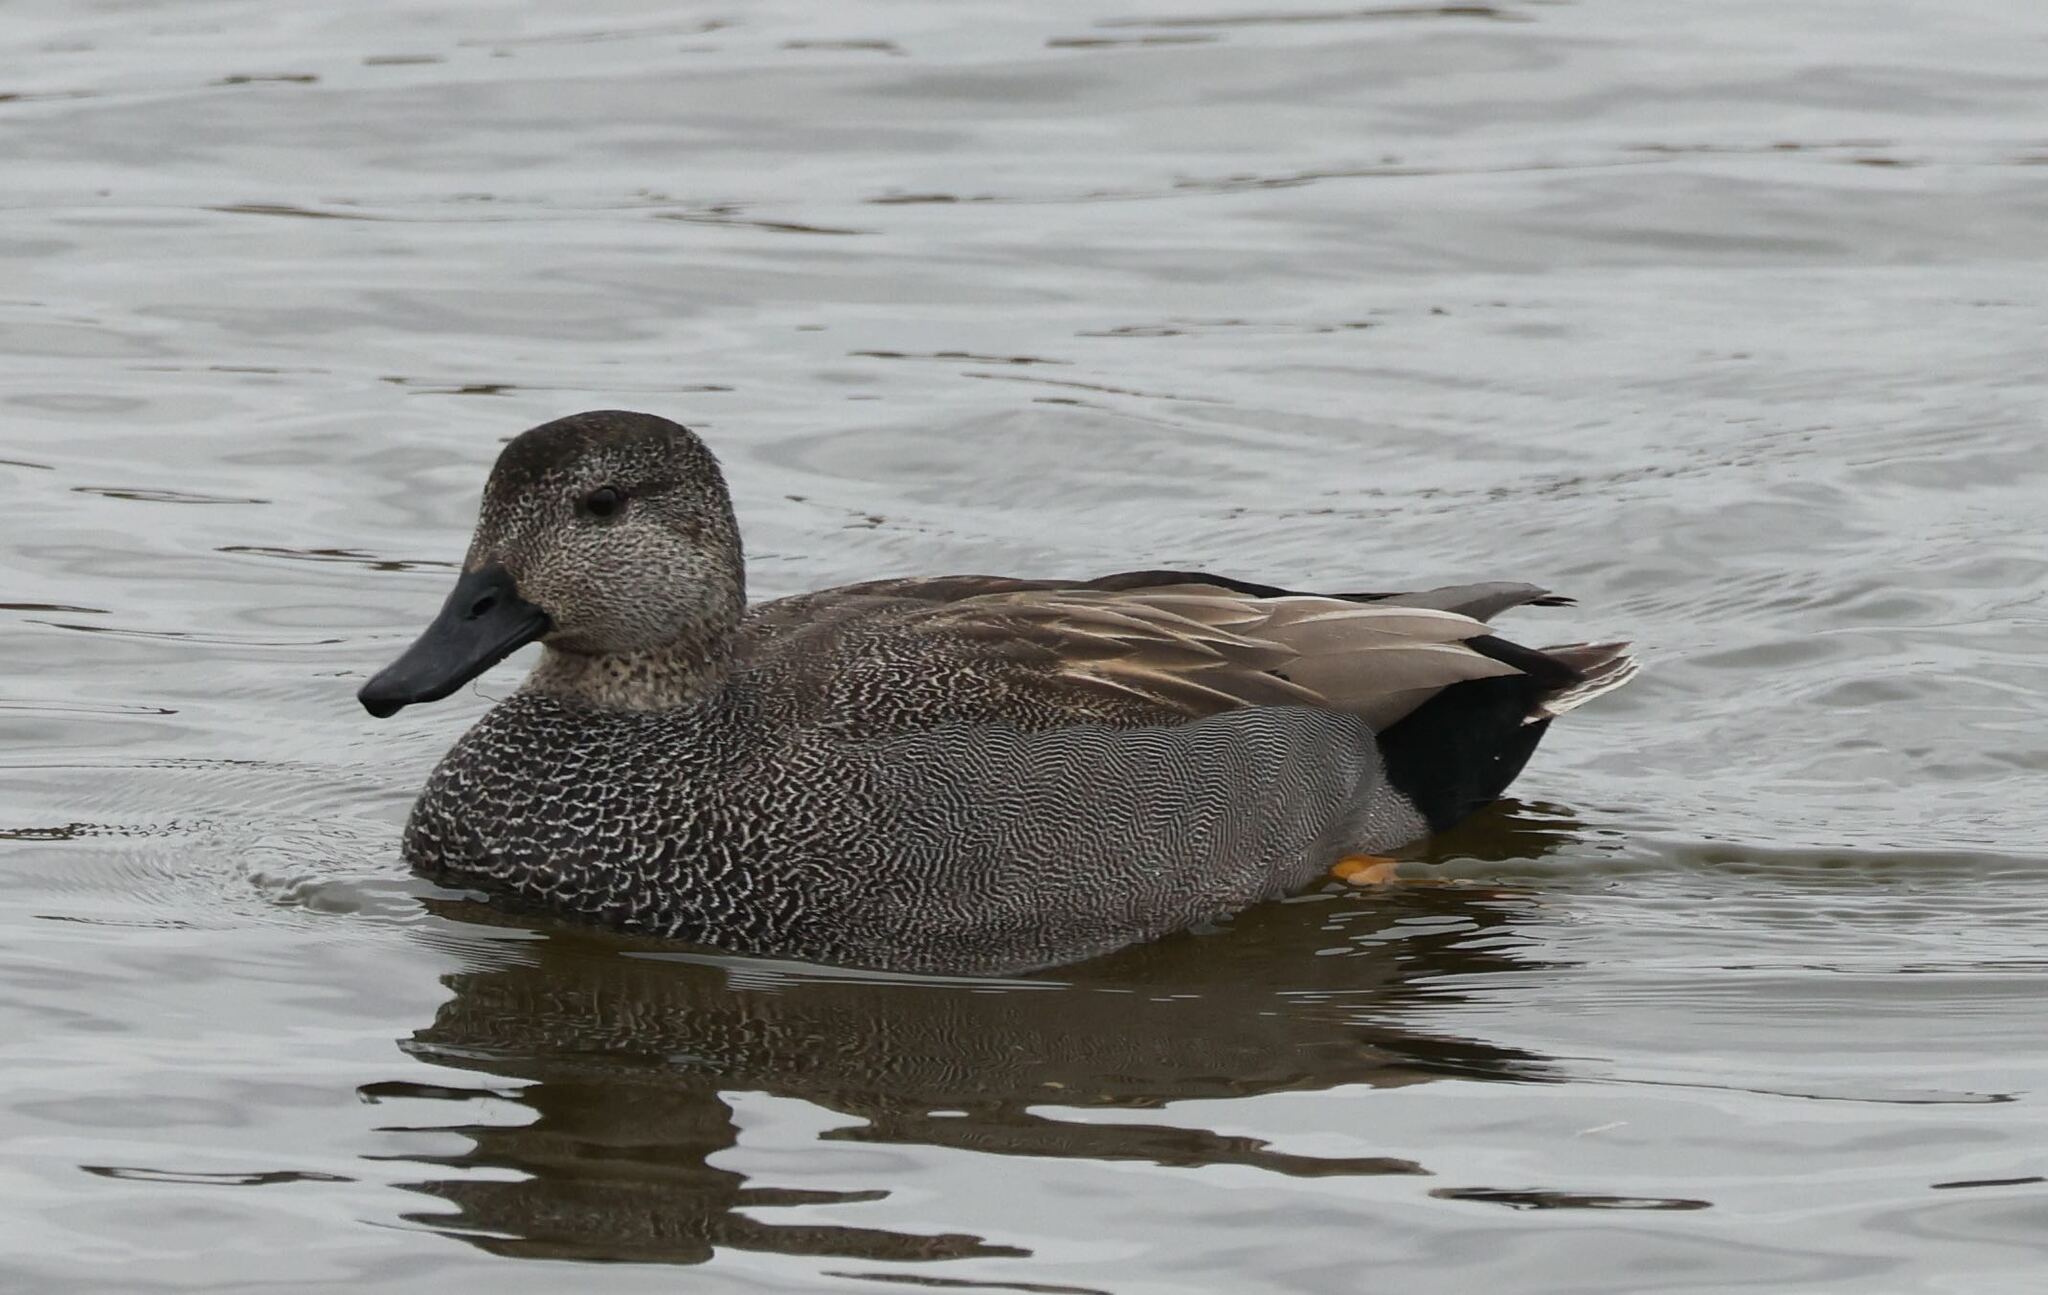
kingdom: Animalia
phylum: Chordata
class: Aves
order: Anseriformes
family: Anatidae
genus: Mareca
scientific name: Mareca strepera
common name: Gadwall
